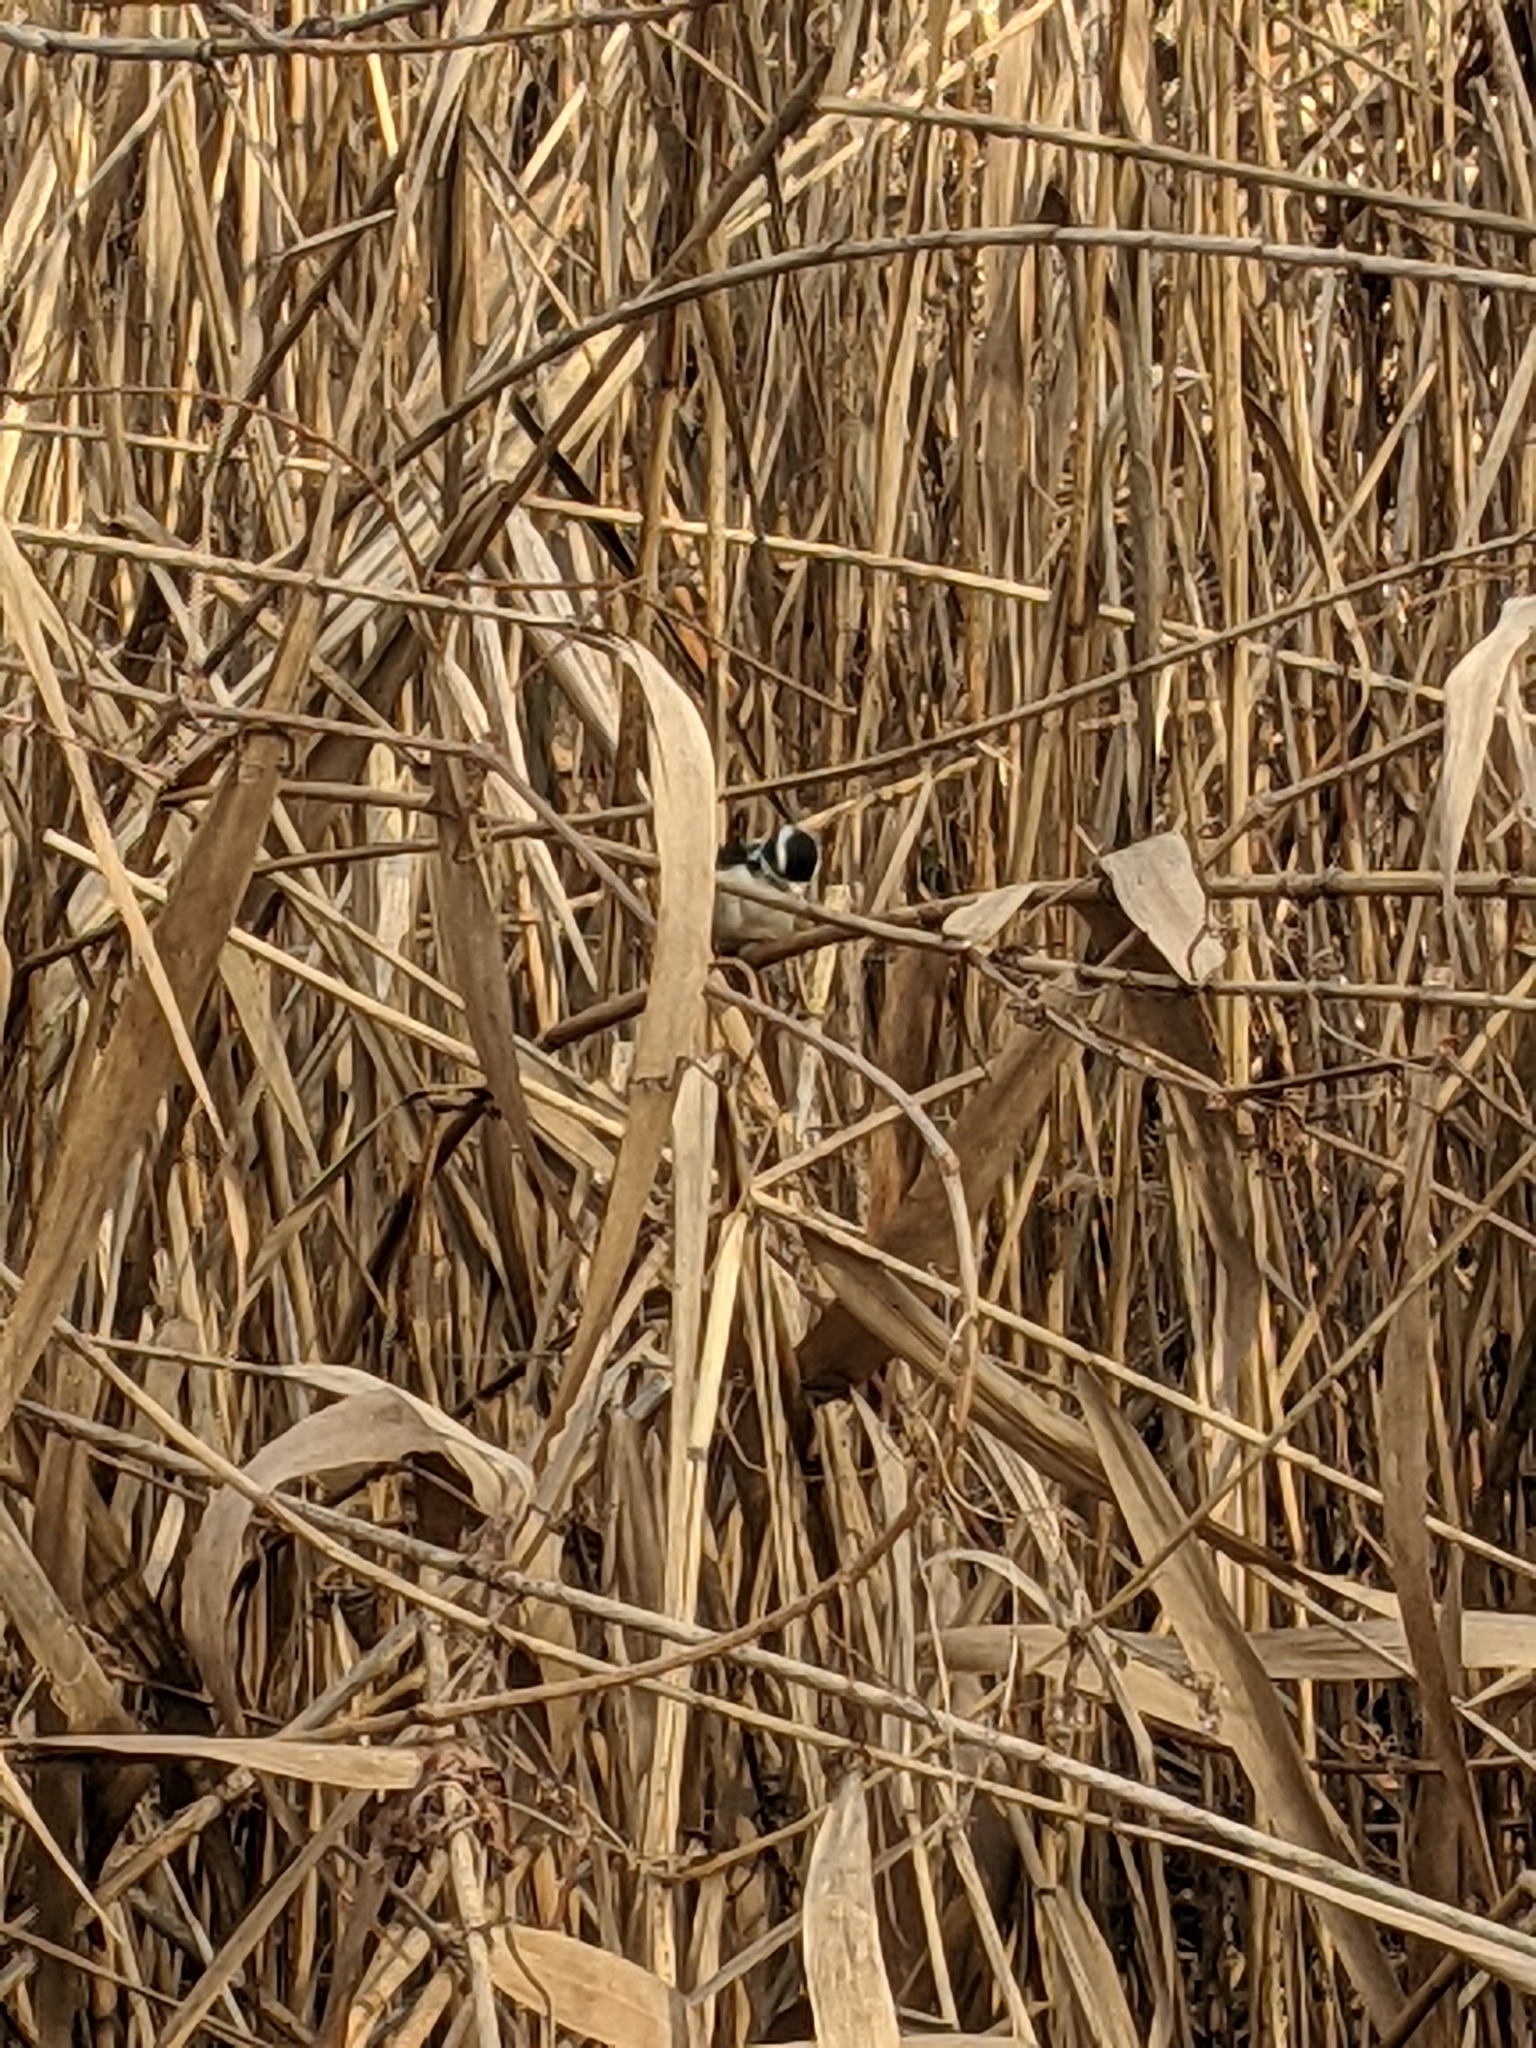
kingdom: Animalia
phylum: Chordata
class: Aves
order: Piciformes
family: Picidae
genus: Dryobates
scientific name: Dryobates pubescens
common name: Downy woodpecker
